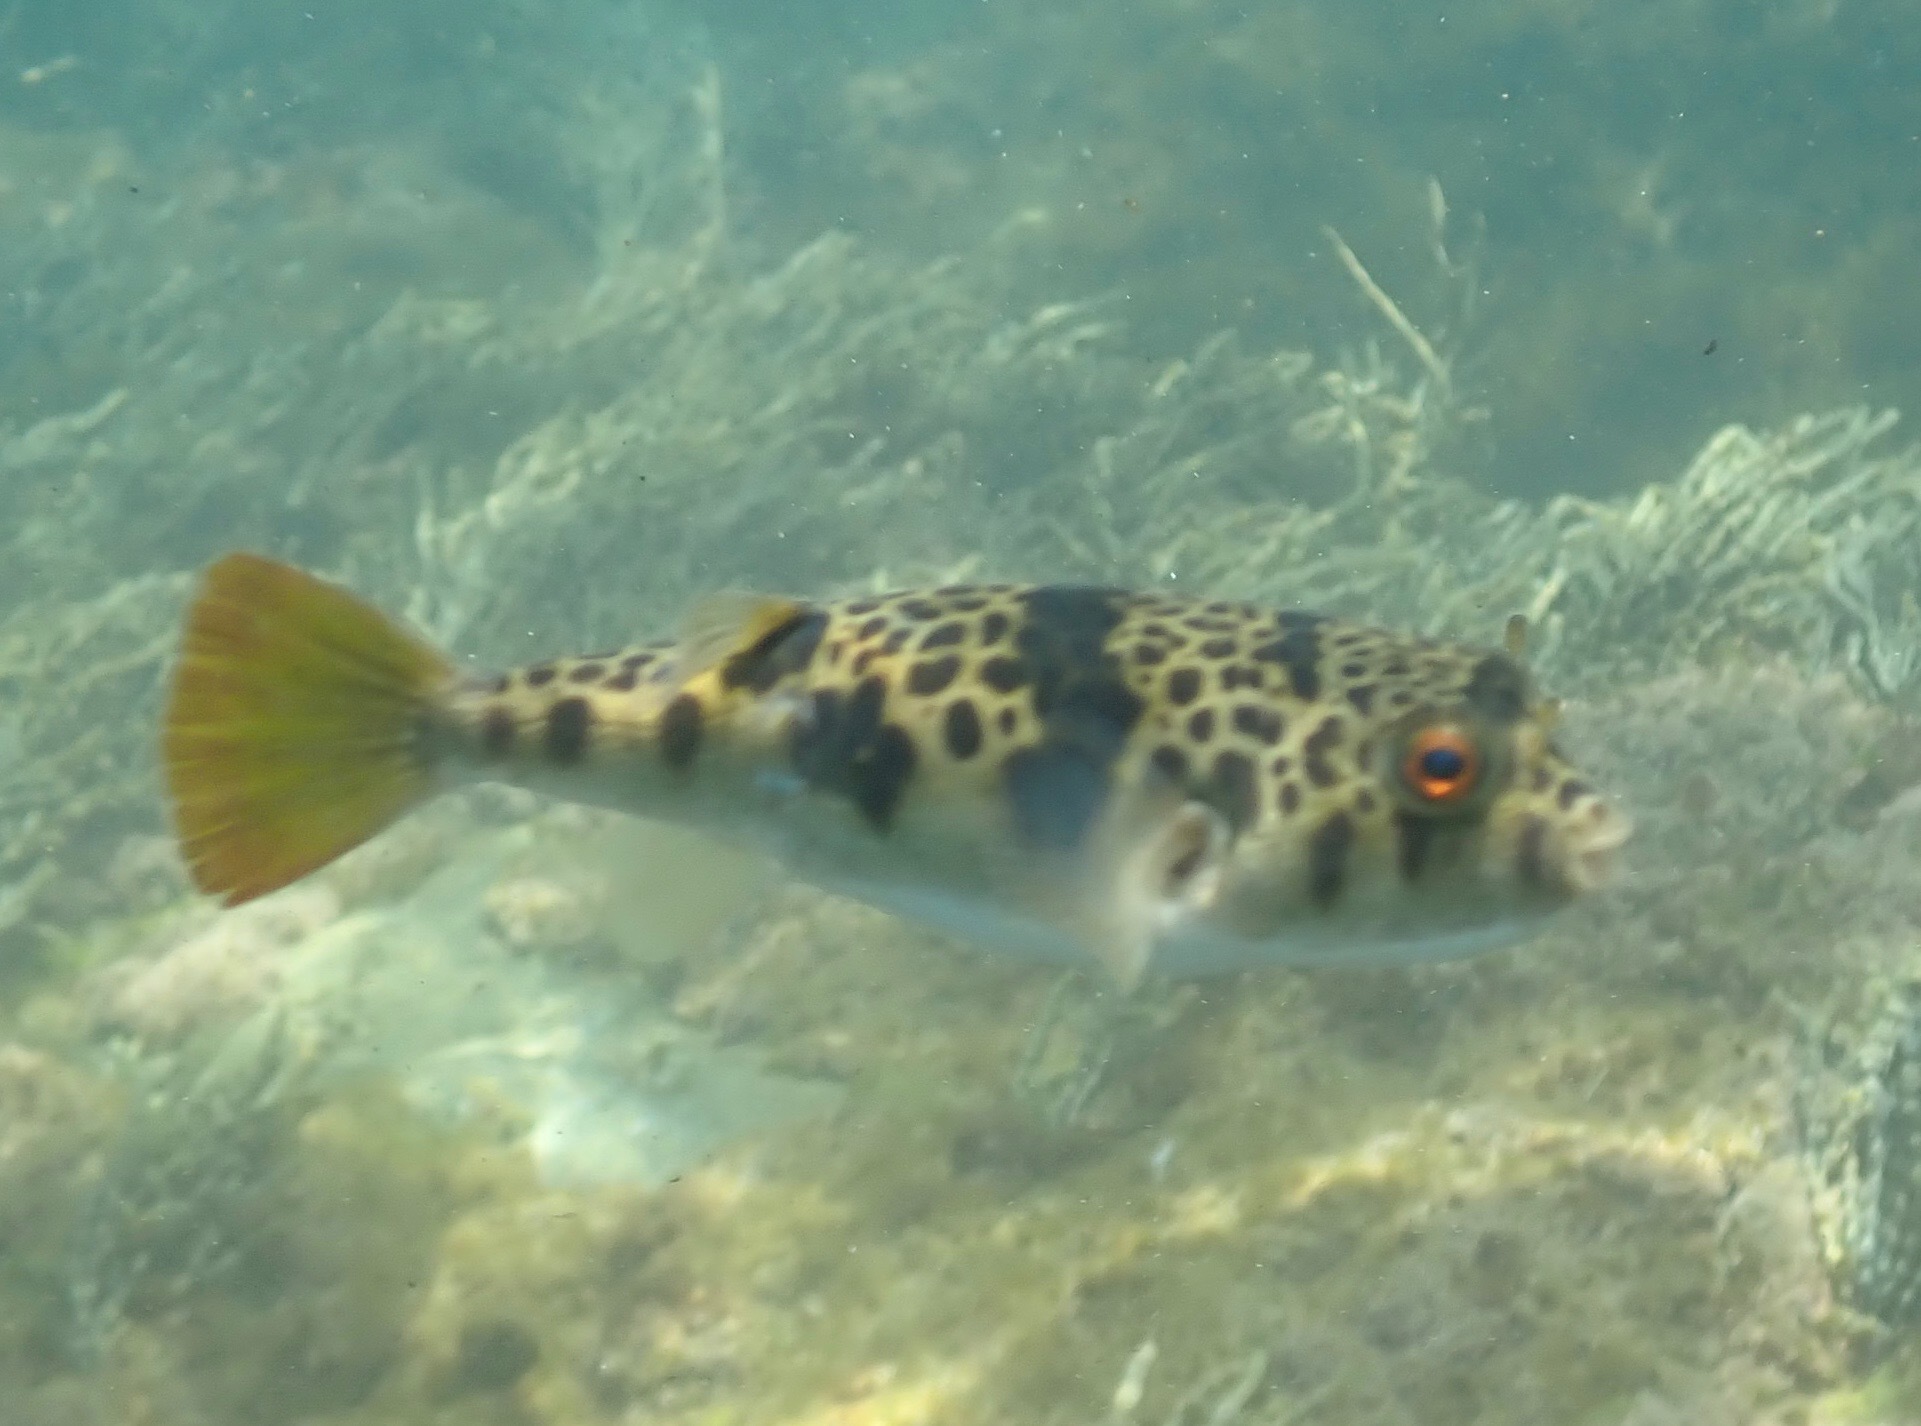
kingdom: Animalia
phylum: Chordata
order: Tetraodontiformes
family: Tetraodontidae
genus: Tetractenos
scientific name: Tetractenos glaber
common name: Smooth toadfish
